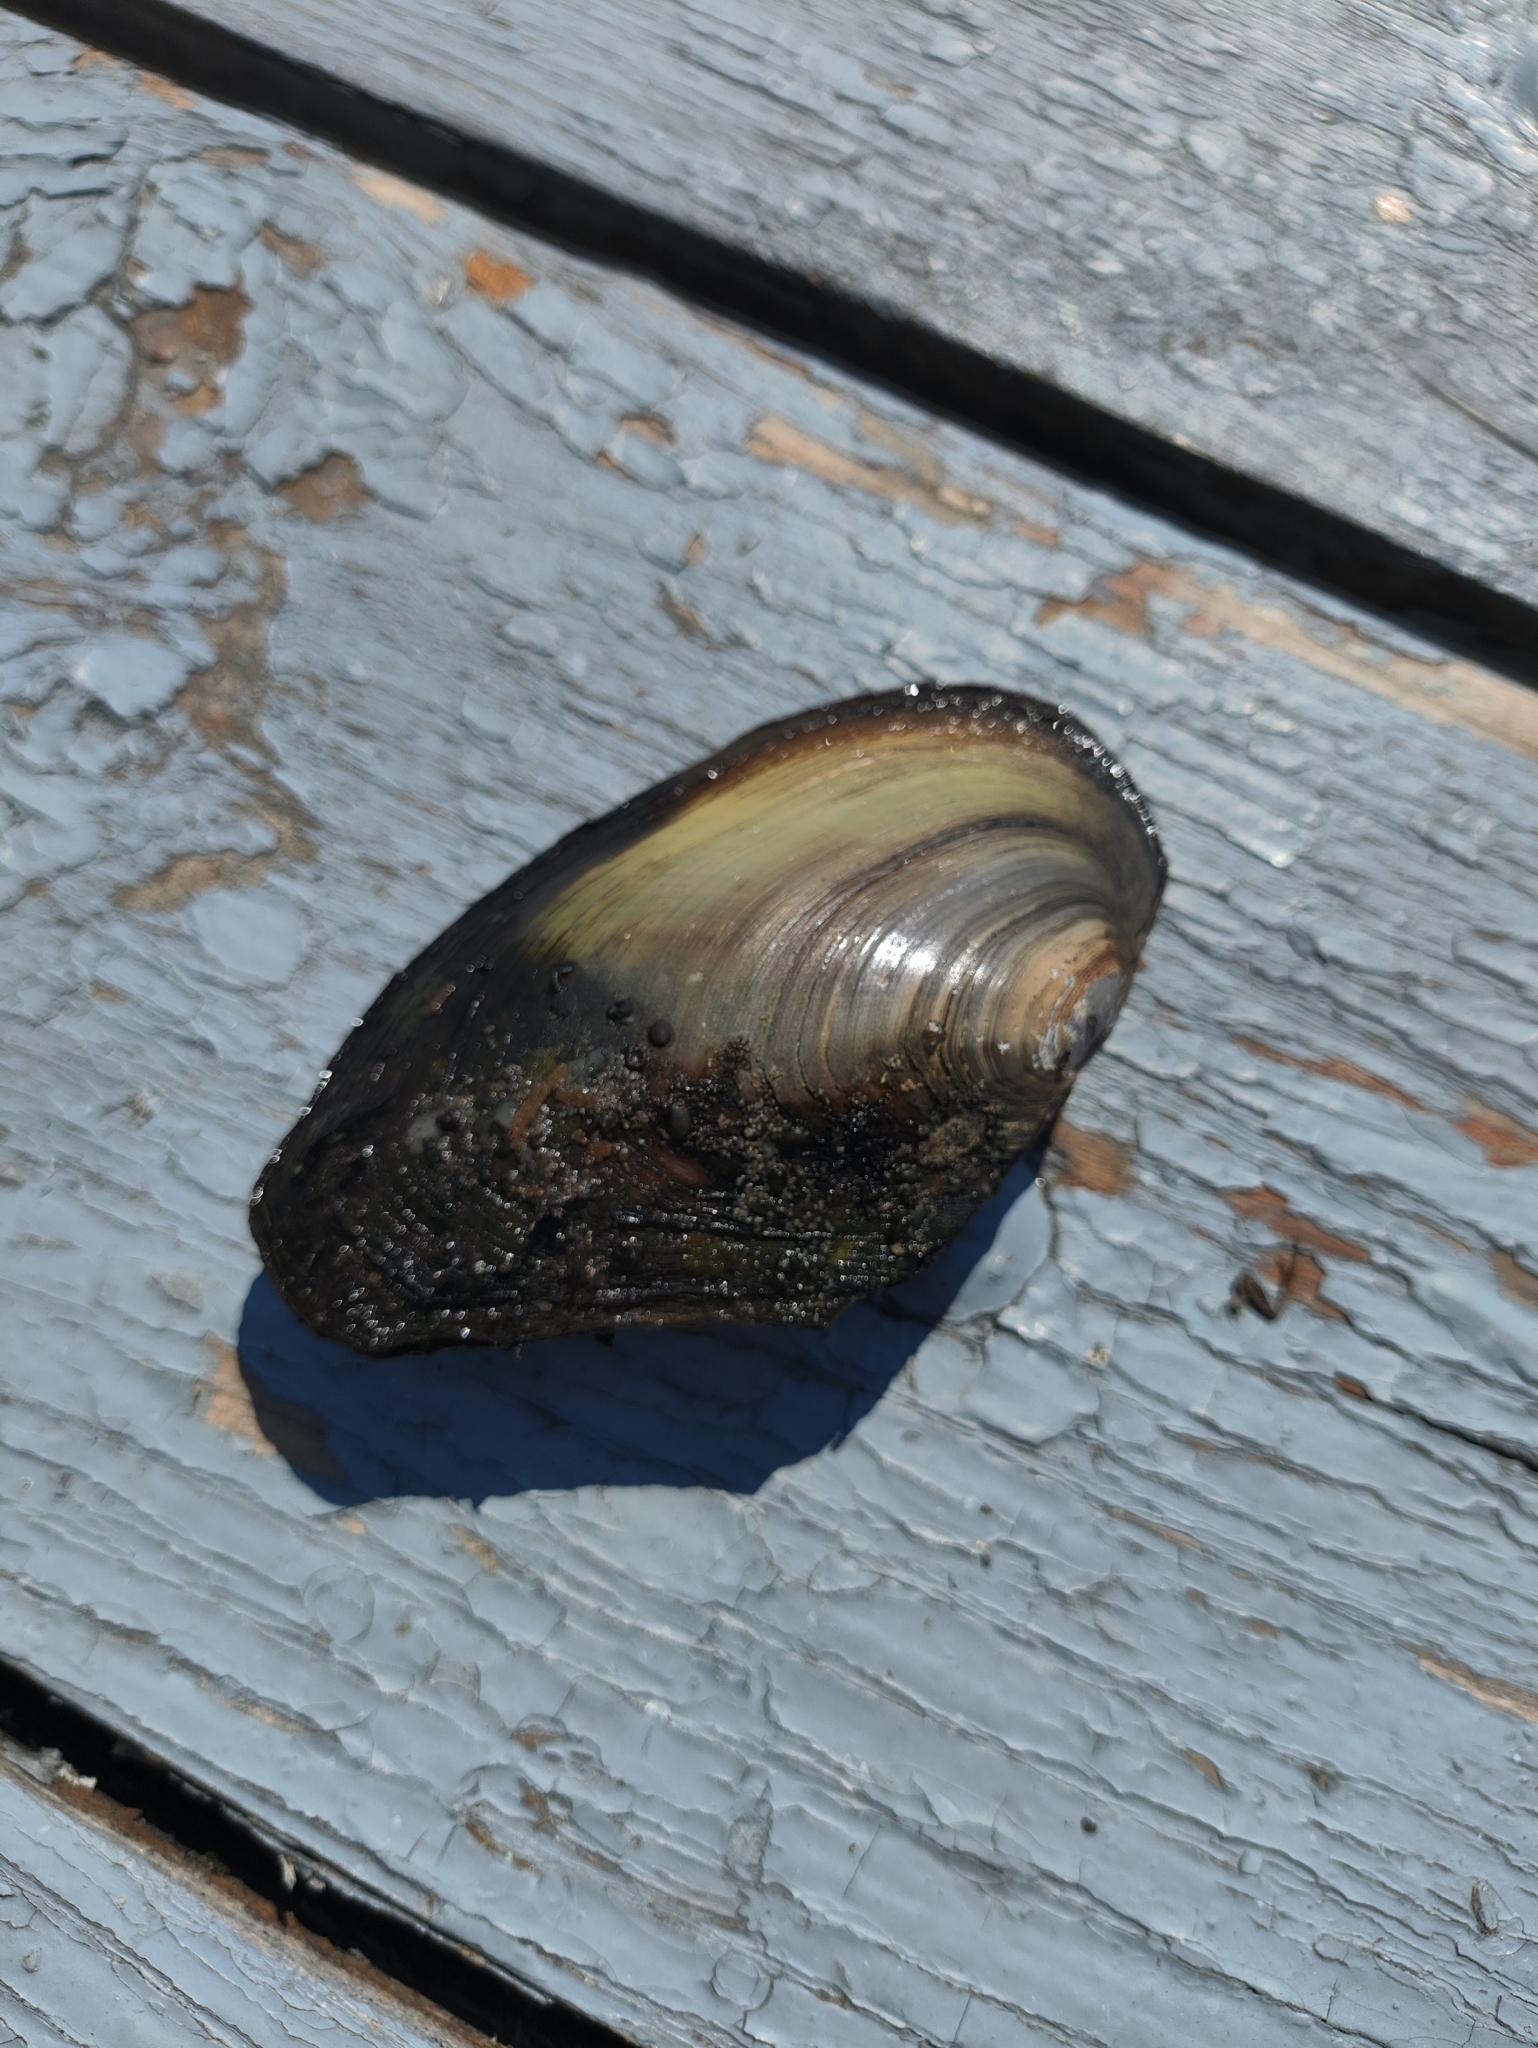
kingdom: Animalia
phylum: Mollusca
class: Bivalvia
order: Unionida
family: Unionidae
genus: Anodonta
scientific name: Anodonta anatina
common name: Duck mussel
